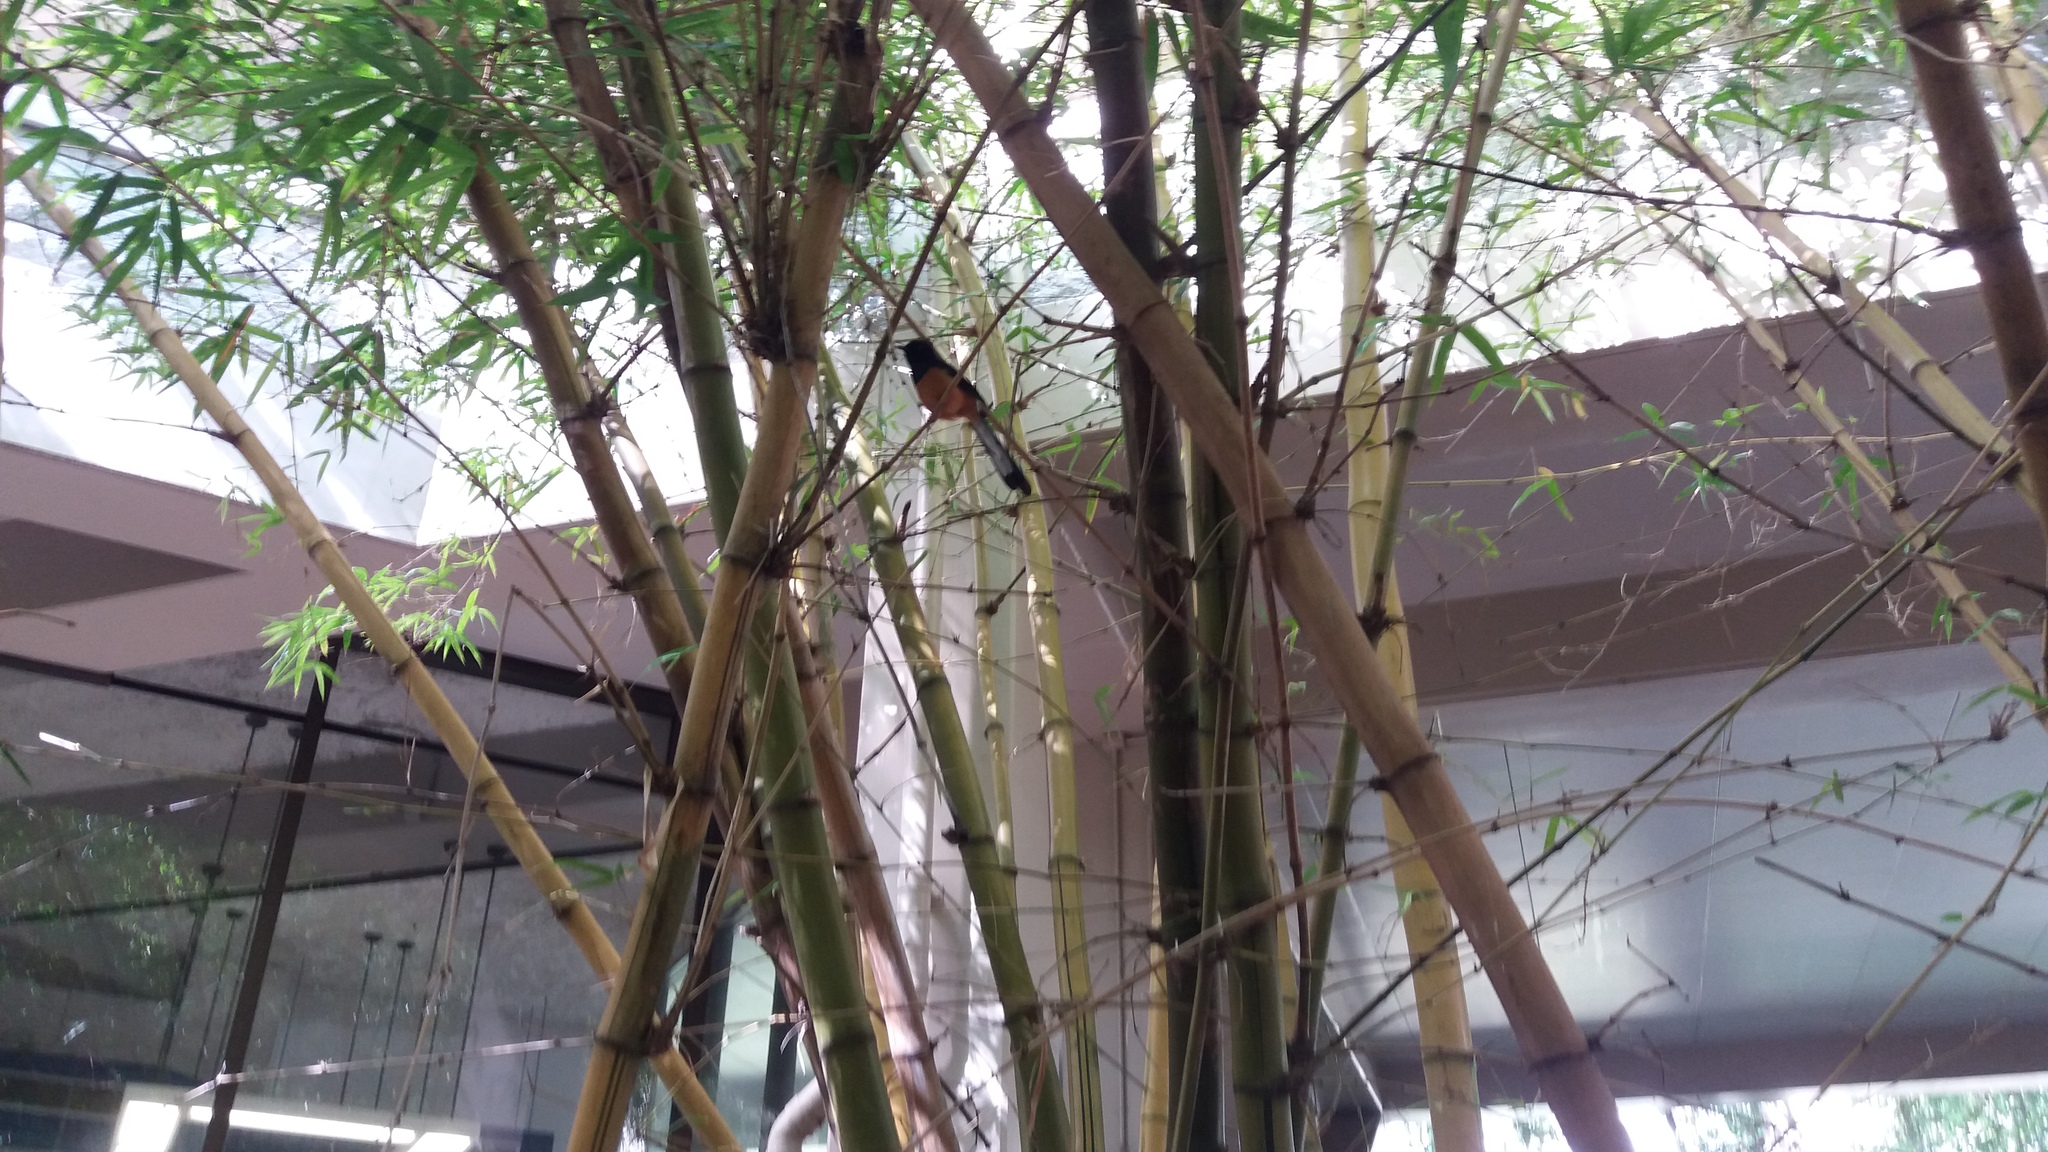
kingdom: Animalia
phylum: Chordata
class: Aves
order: Passeriformes
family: Muscicapidae
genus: Copsychus
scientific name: Copsychus malabaricus
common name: White-rumped shama
